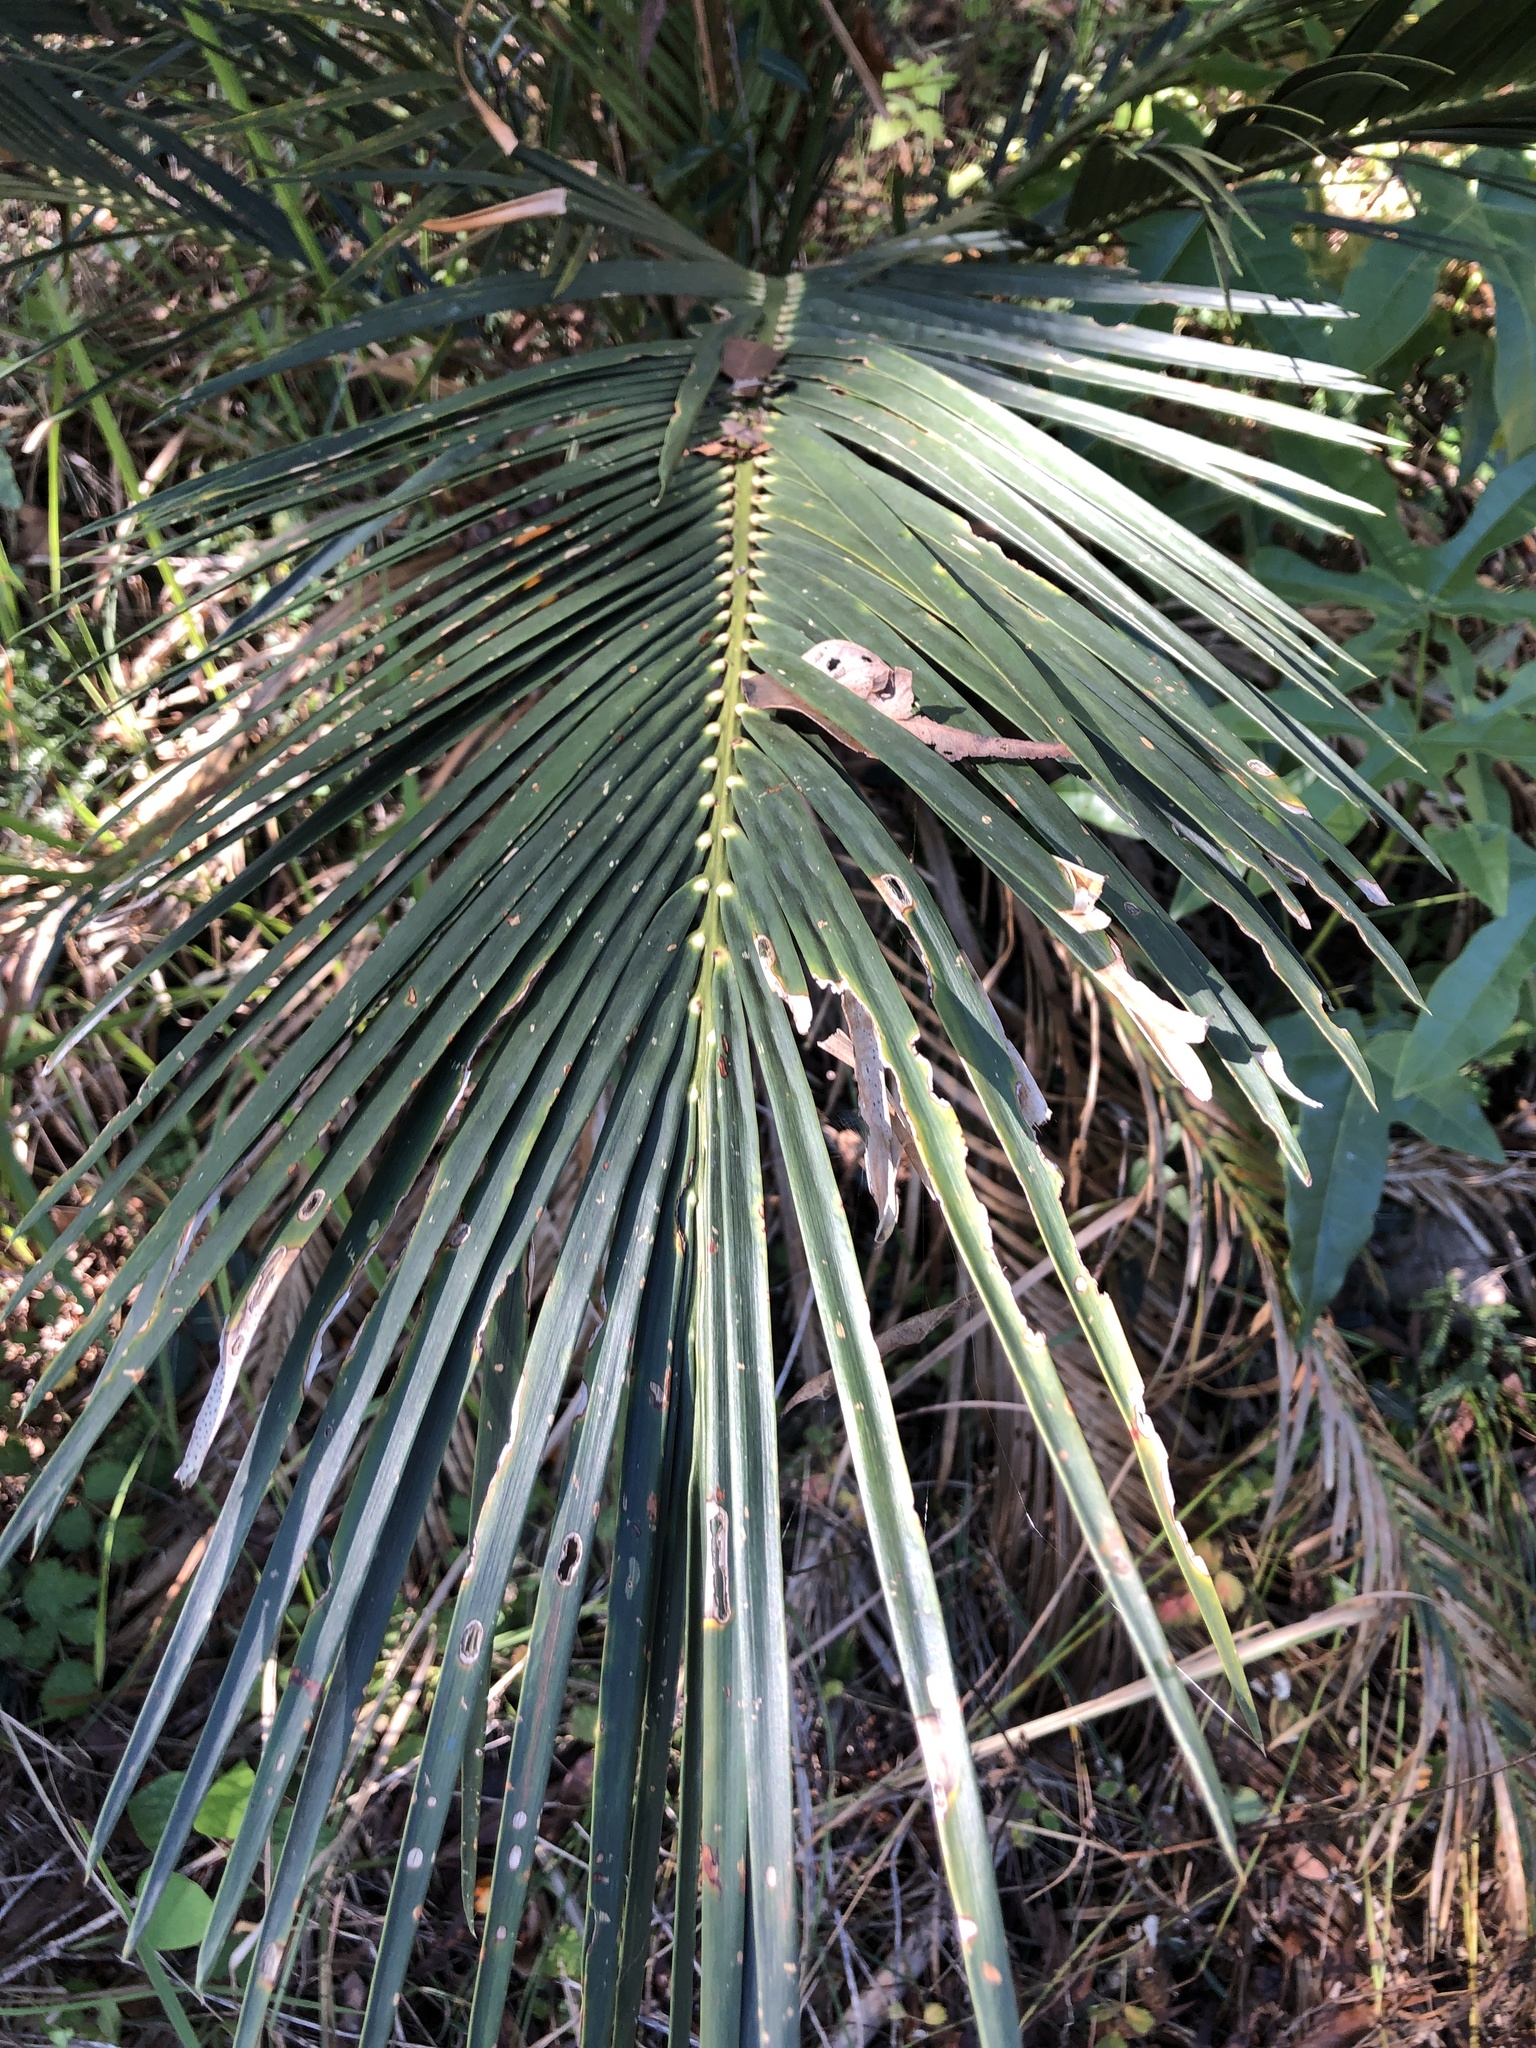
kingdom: Plantae
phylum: Tracheophyta
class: Cycadopsida
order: Cycadales
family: Zamiaceae
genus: Macrozamia
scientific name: Macrozamia miquelii
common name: Wild pineapple
